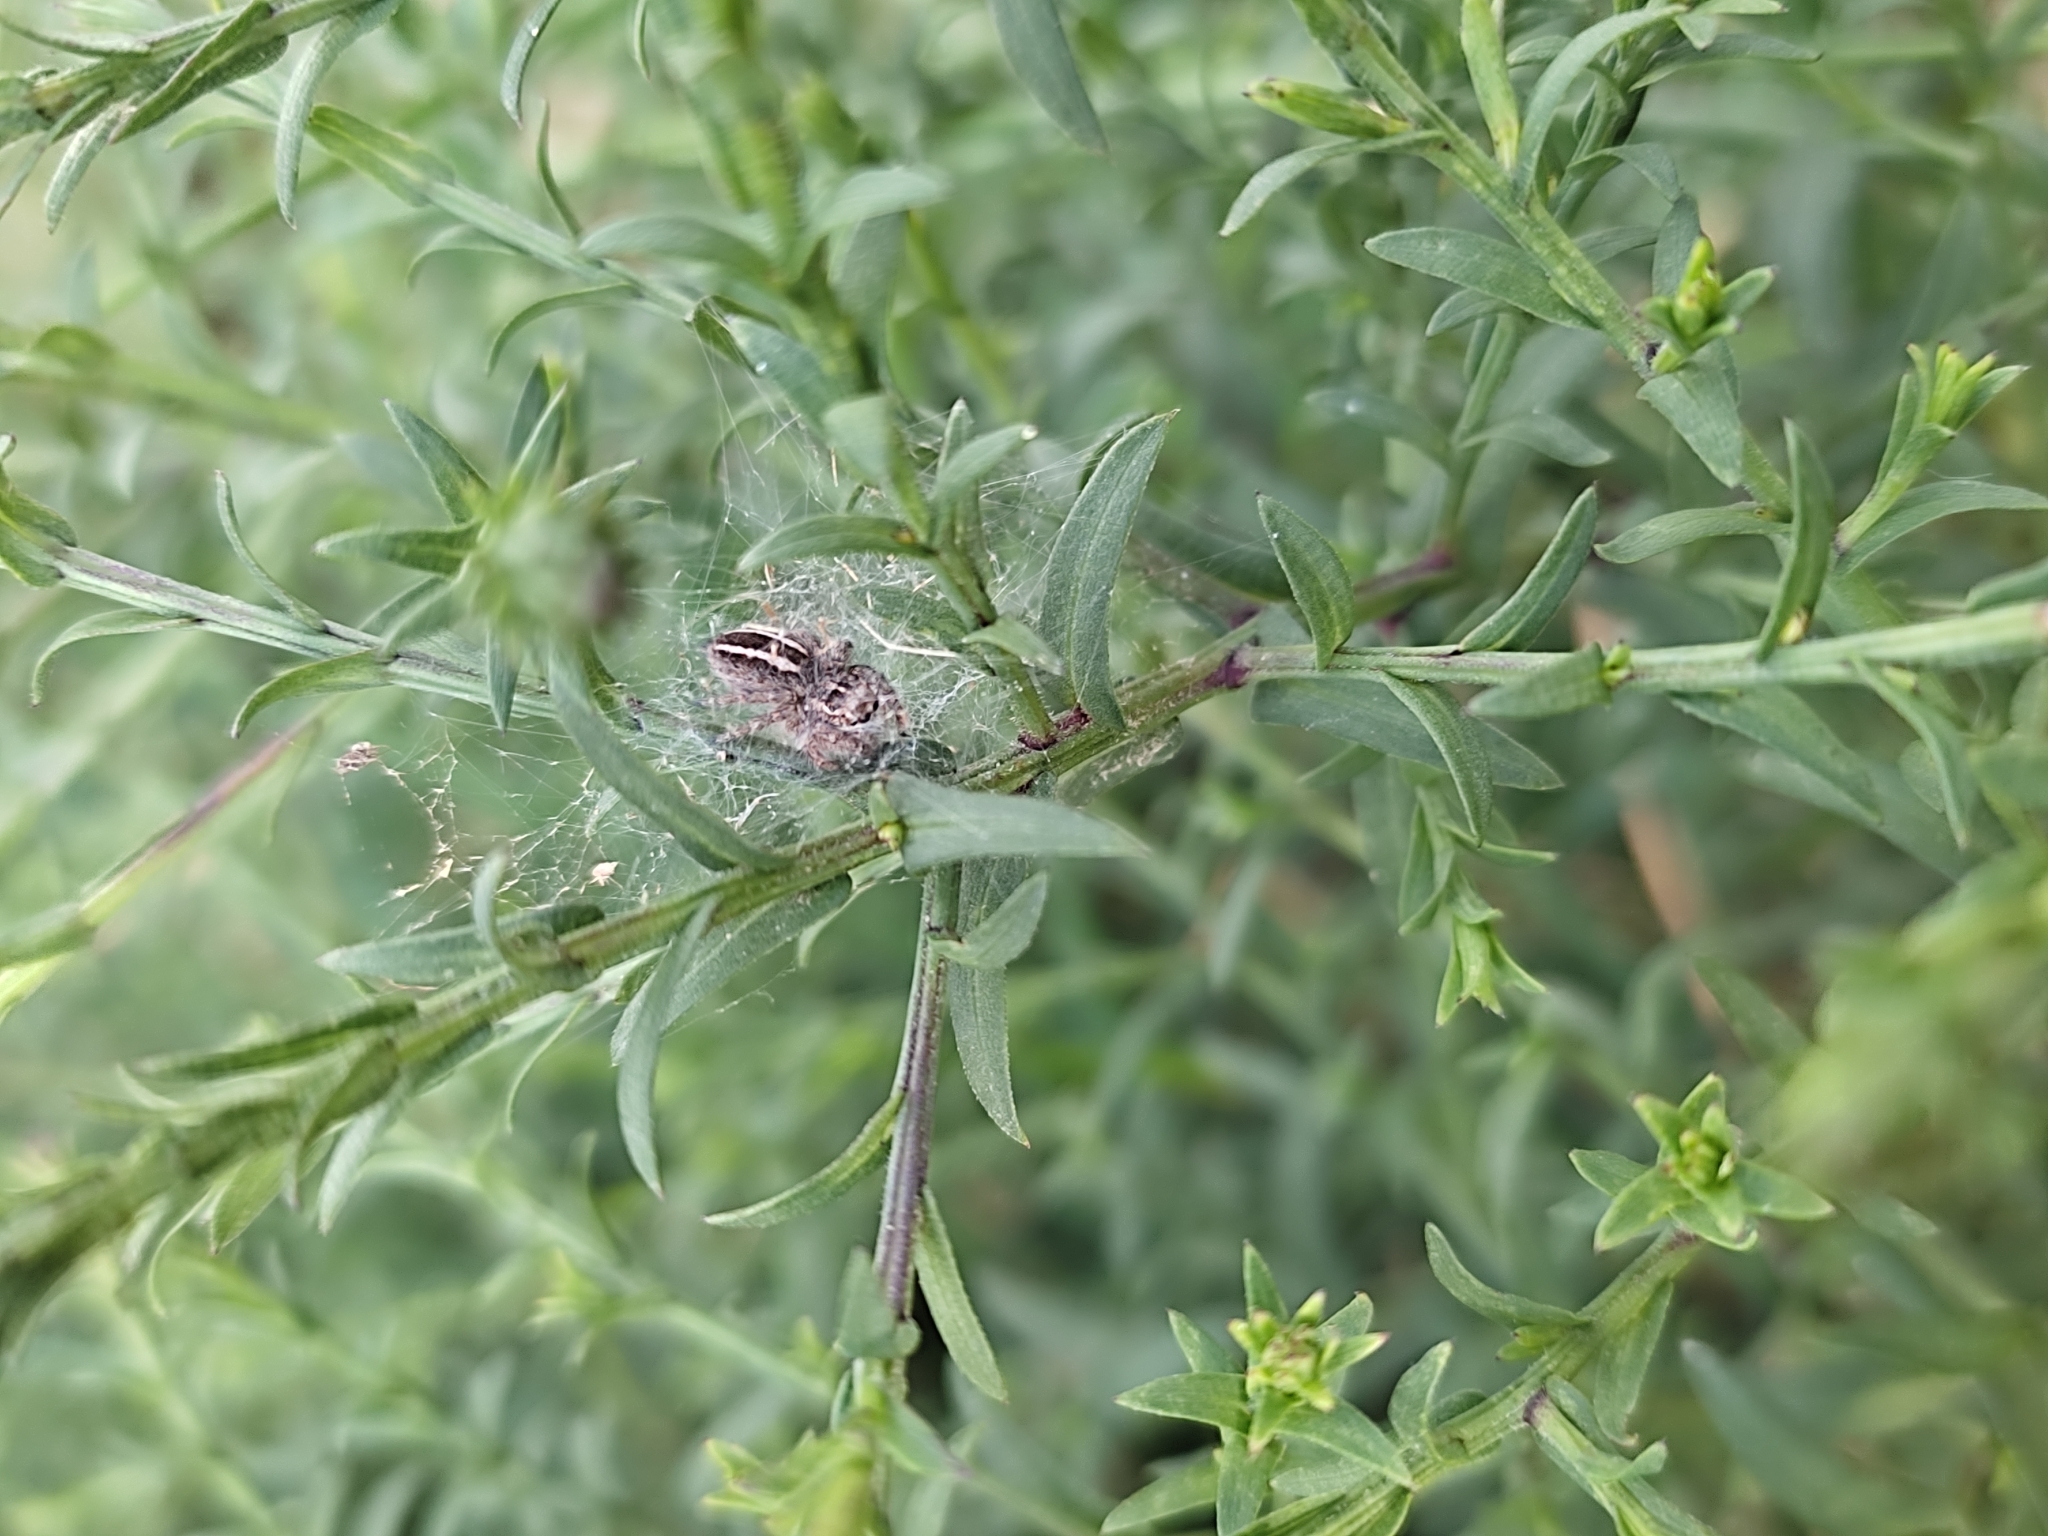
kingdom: Animalia
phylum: Arthropoda
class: Arachnida
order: Araneae
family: Salticidae
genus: Philaeus
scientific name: Philaeus chrysops
